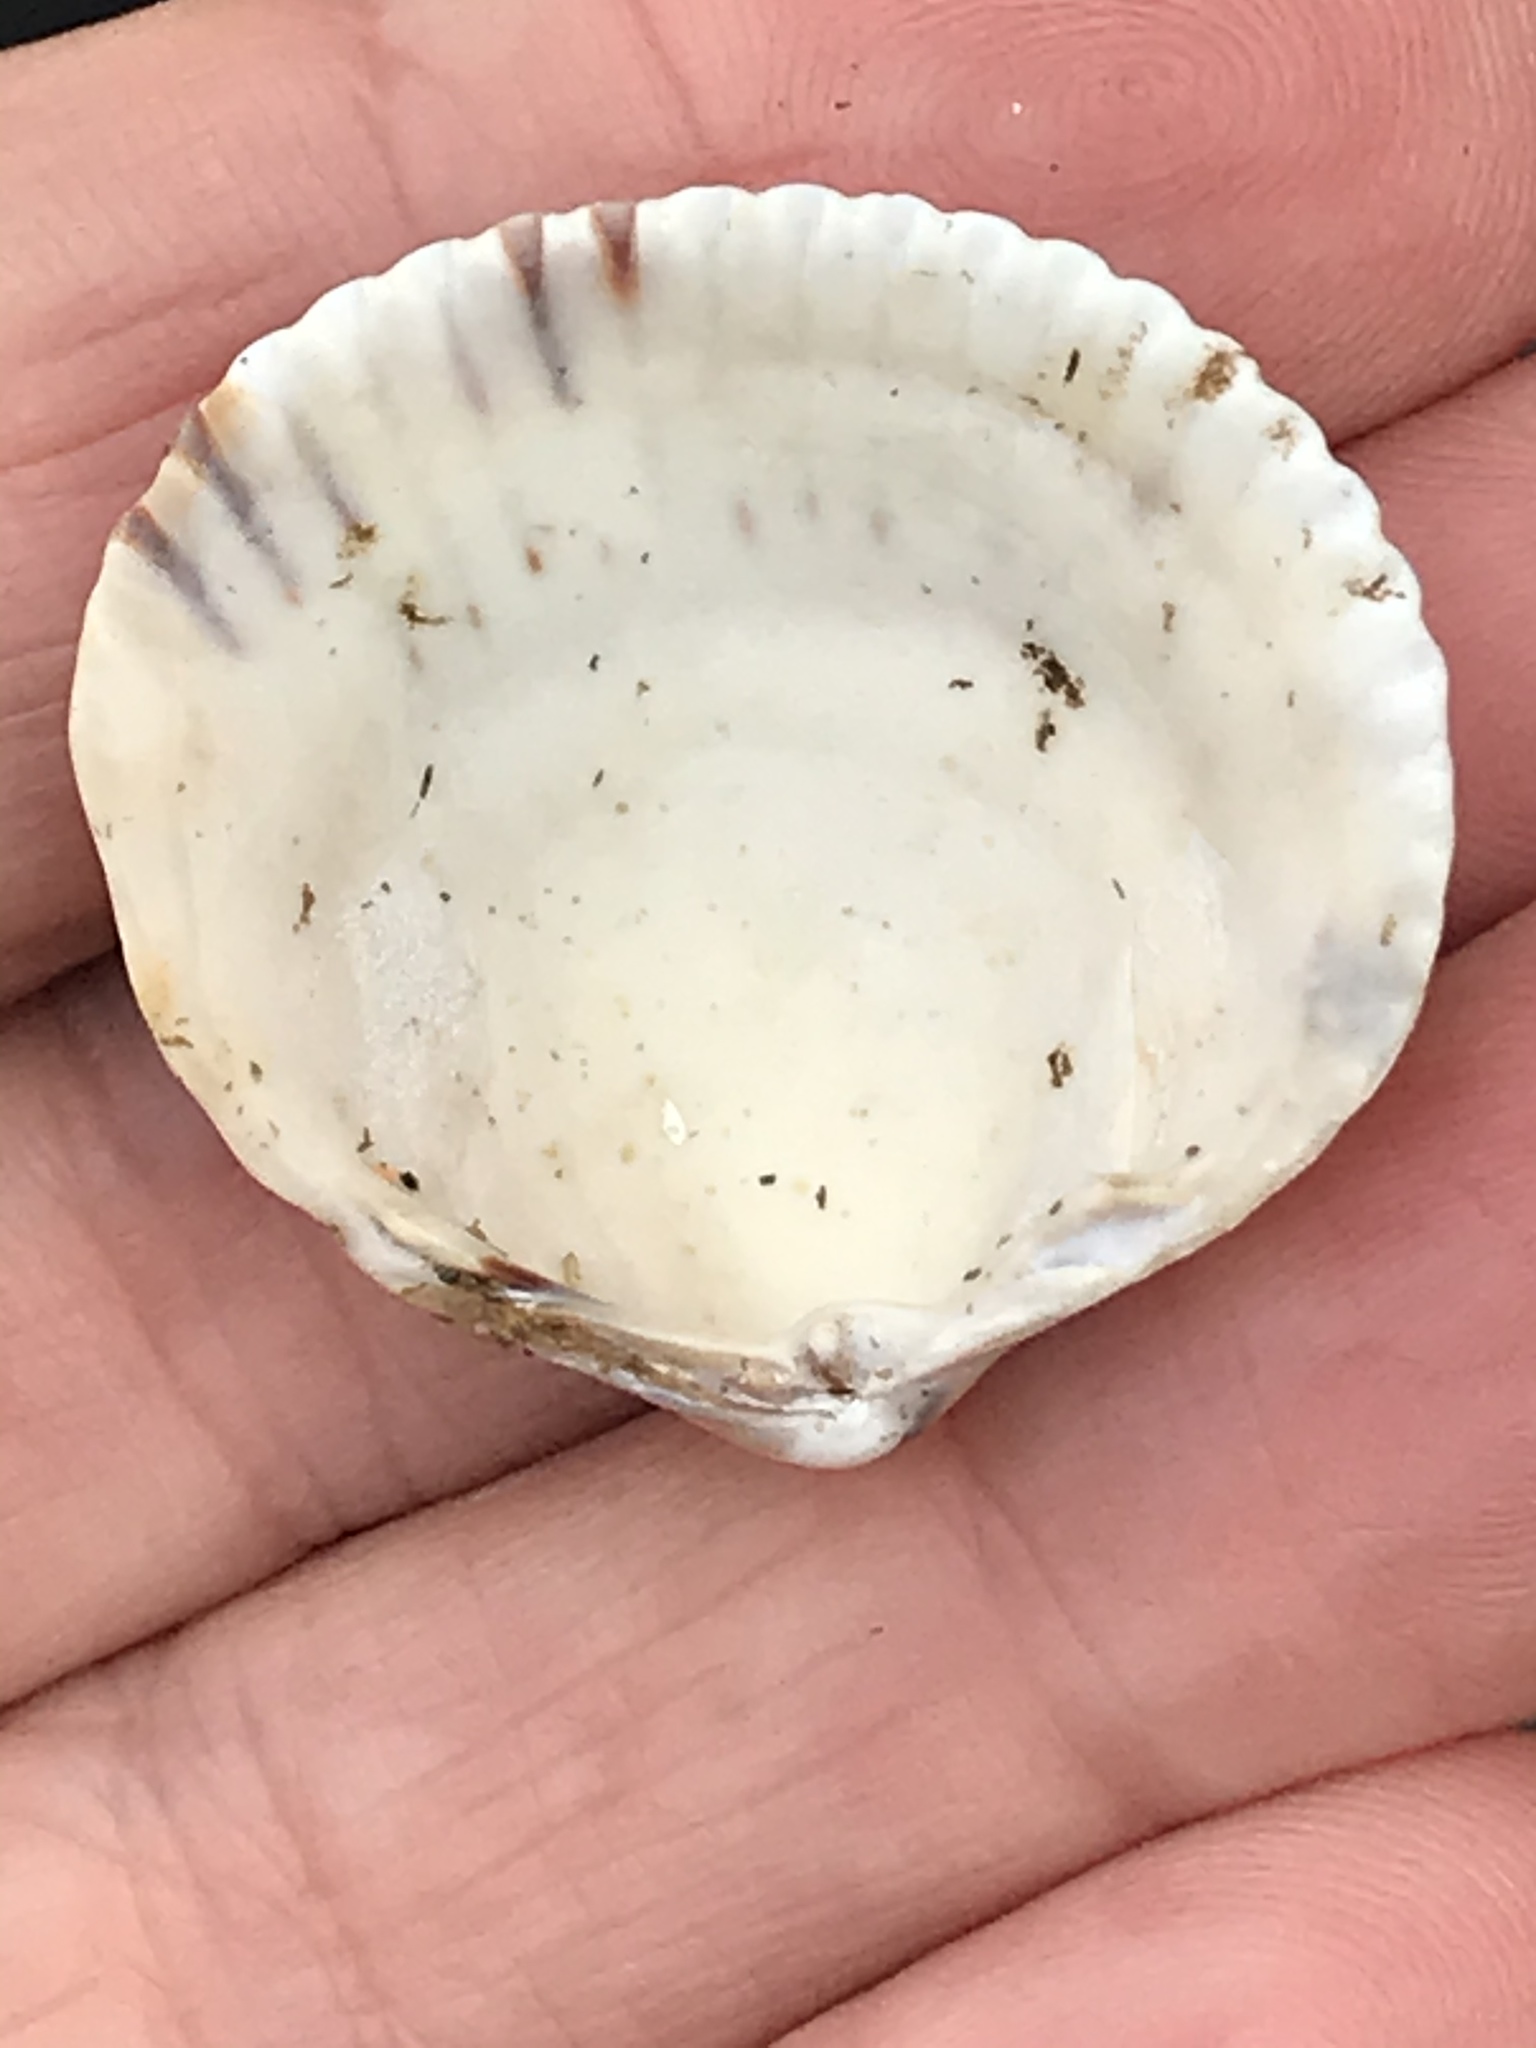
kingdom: Animalia
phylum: Mollusca
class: Bivalvia
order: Cardiida
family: Cardiidae
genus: Clinocardium
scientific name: Clinocardium nuttallii
